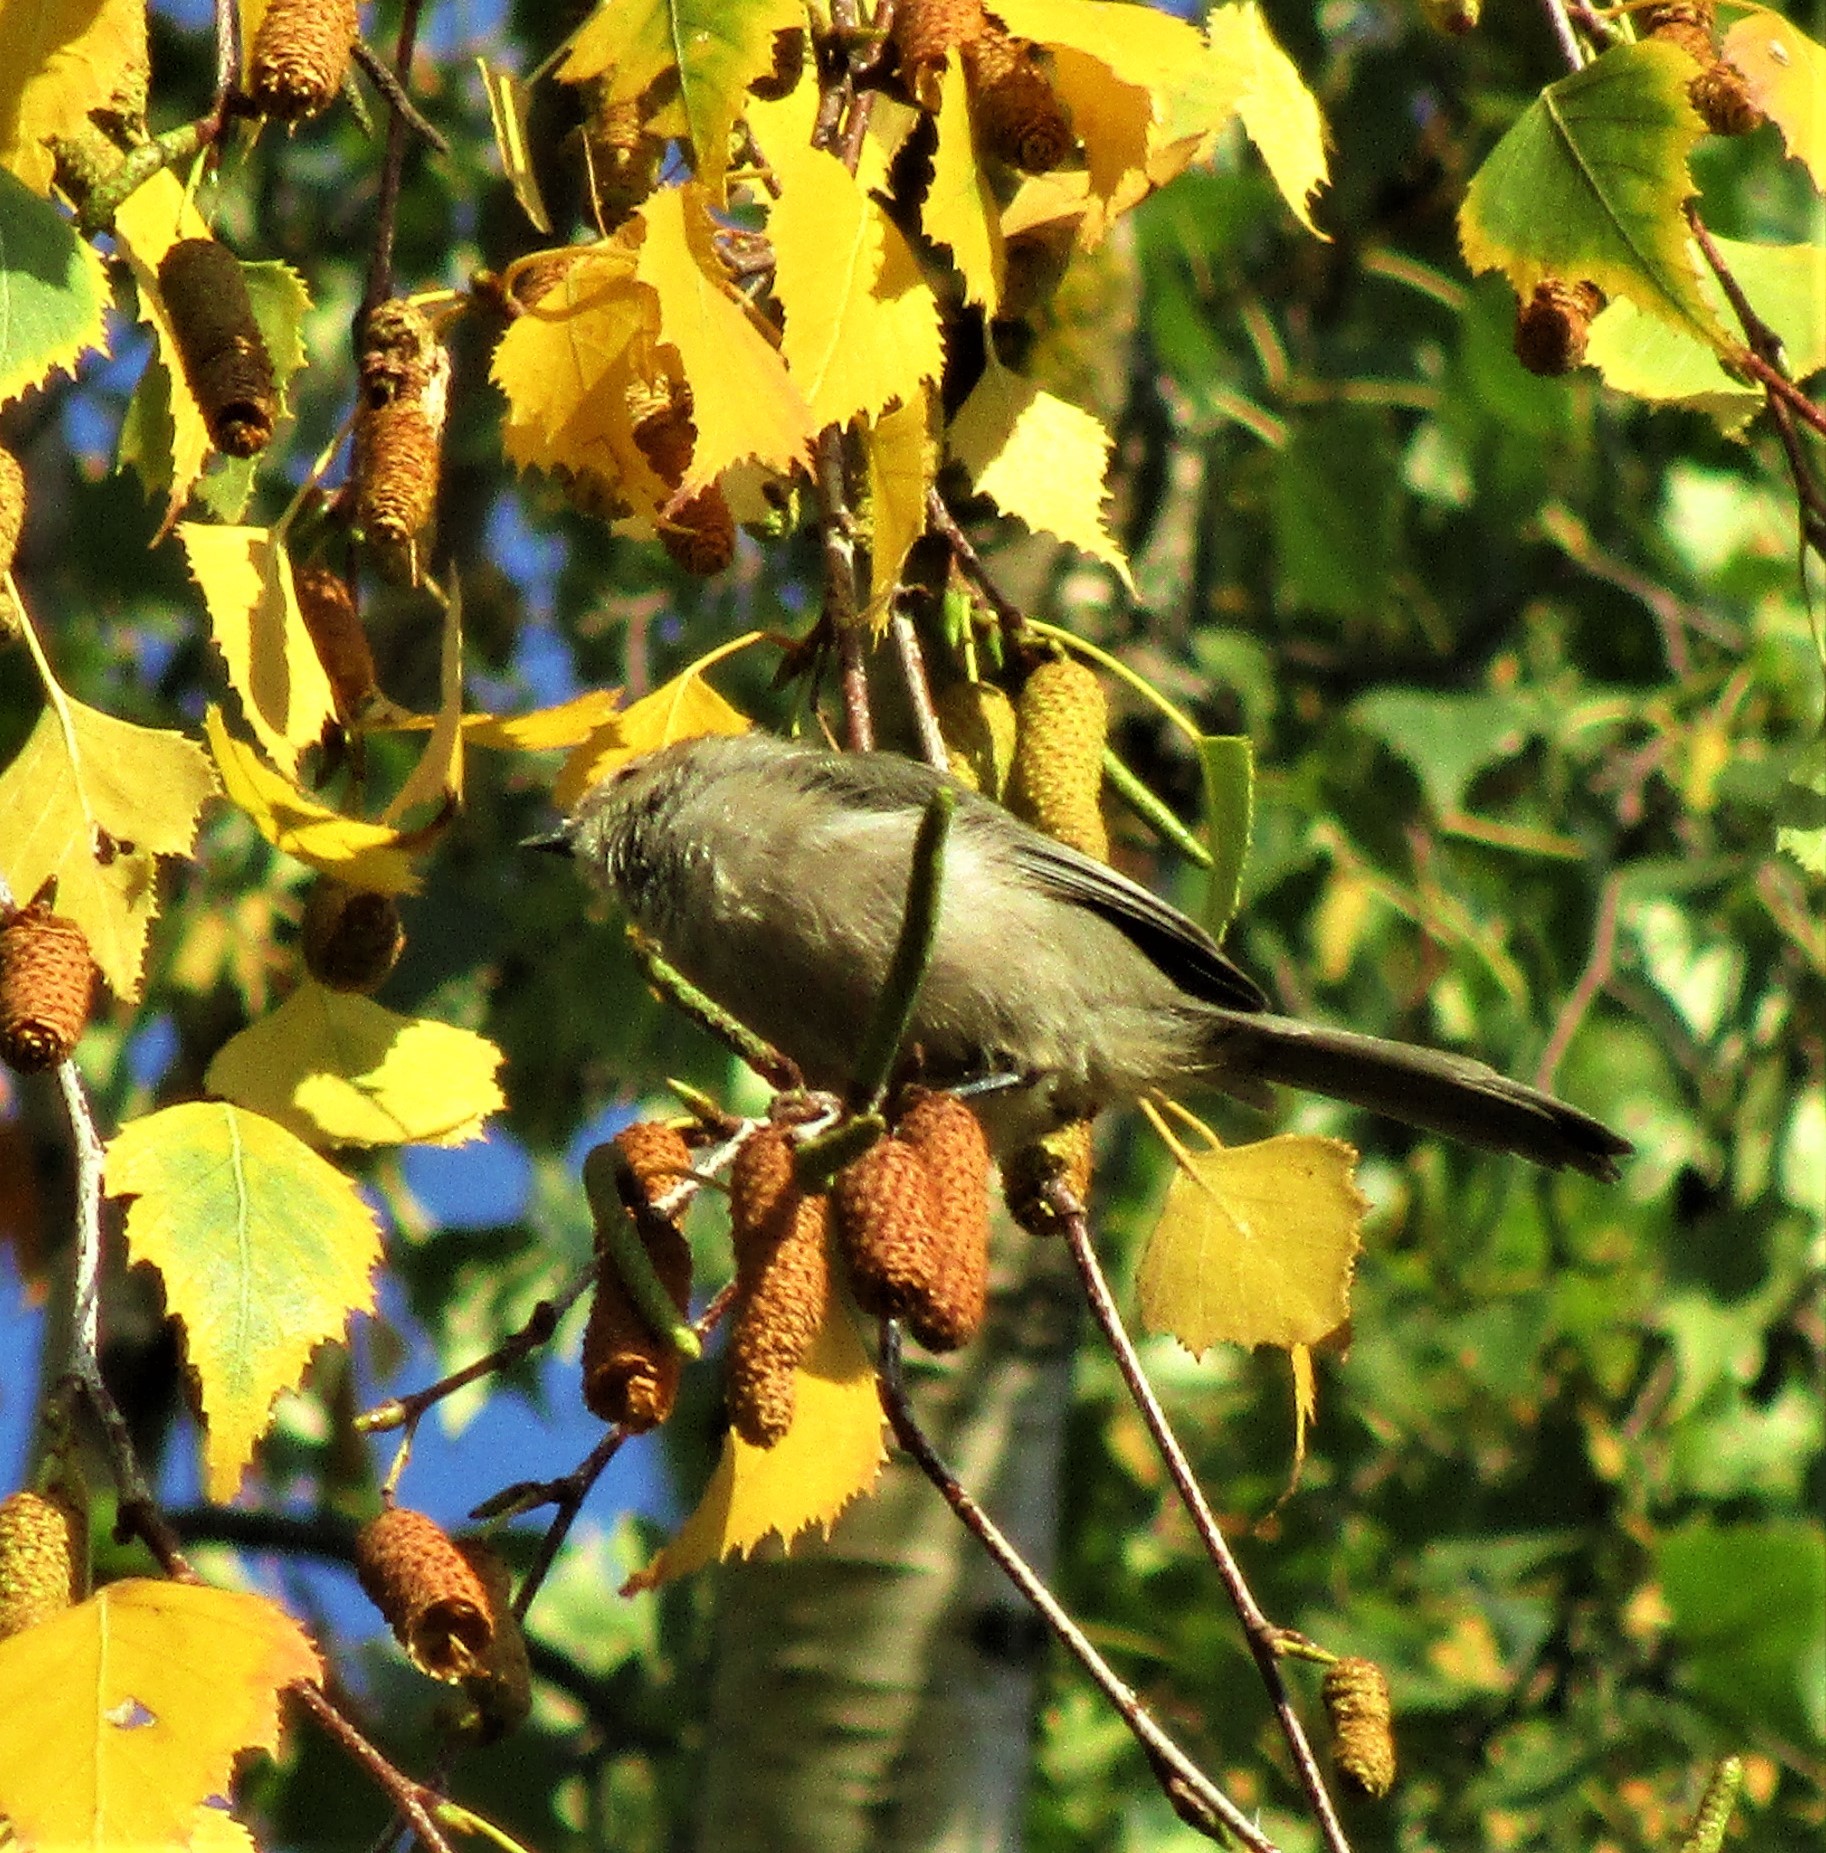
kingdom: Animalia
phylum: Chordata
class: Aves
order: Passeriformes
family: Aegithalidae
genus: Psaltriparus
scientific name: Psaltriparus minimus
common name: American bushtit
